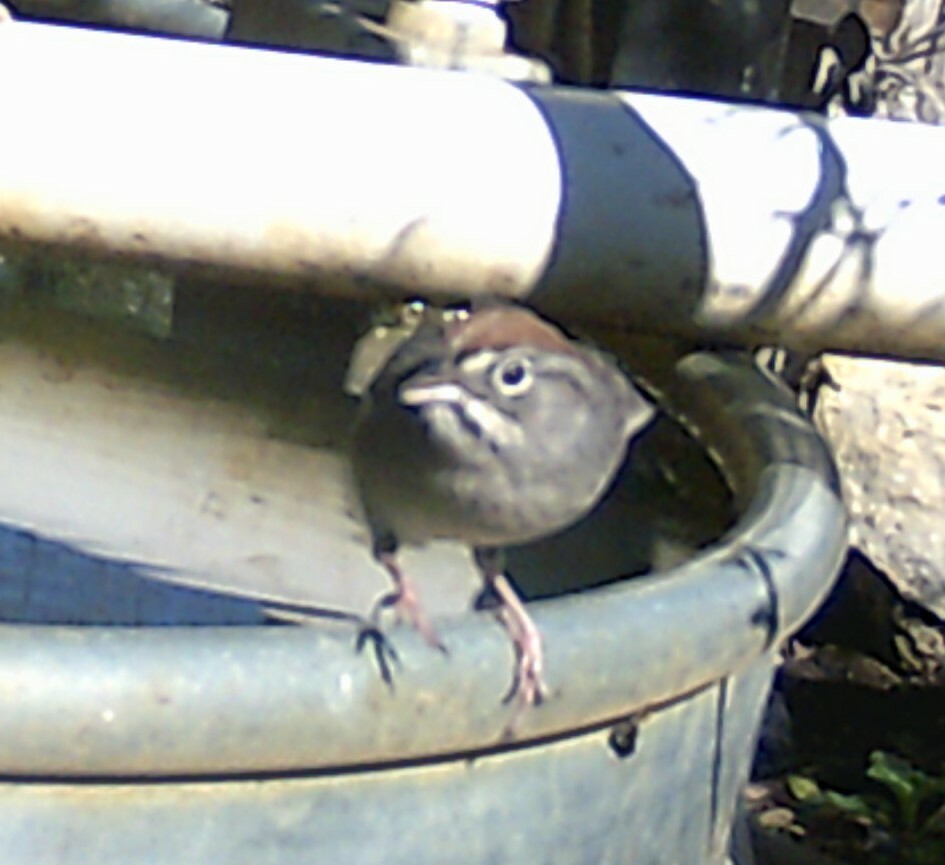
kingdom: Animalia
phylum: Chordata
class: Aves
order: Passeriformes
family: Passerellidae
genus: Aimophila
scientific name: Aimophila ruficeps
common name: Rufous-crowned sparrow
